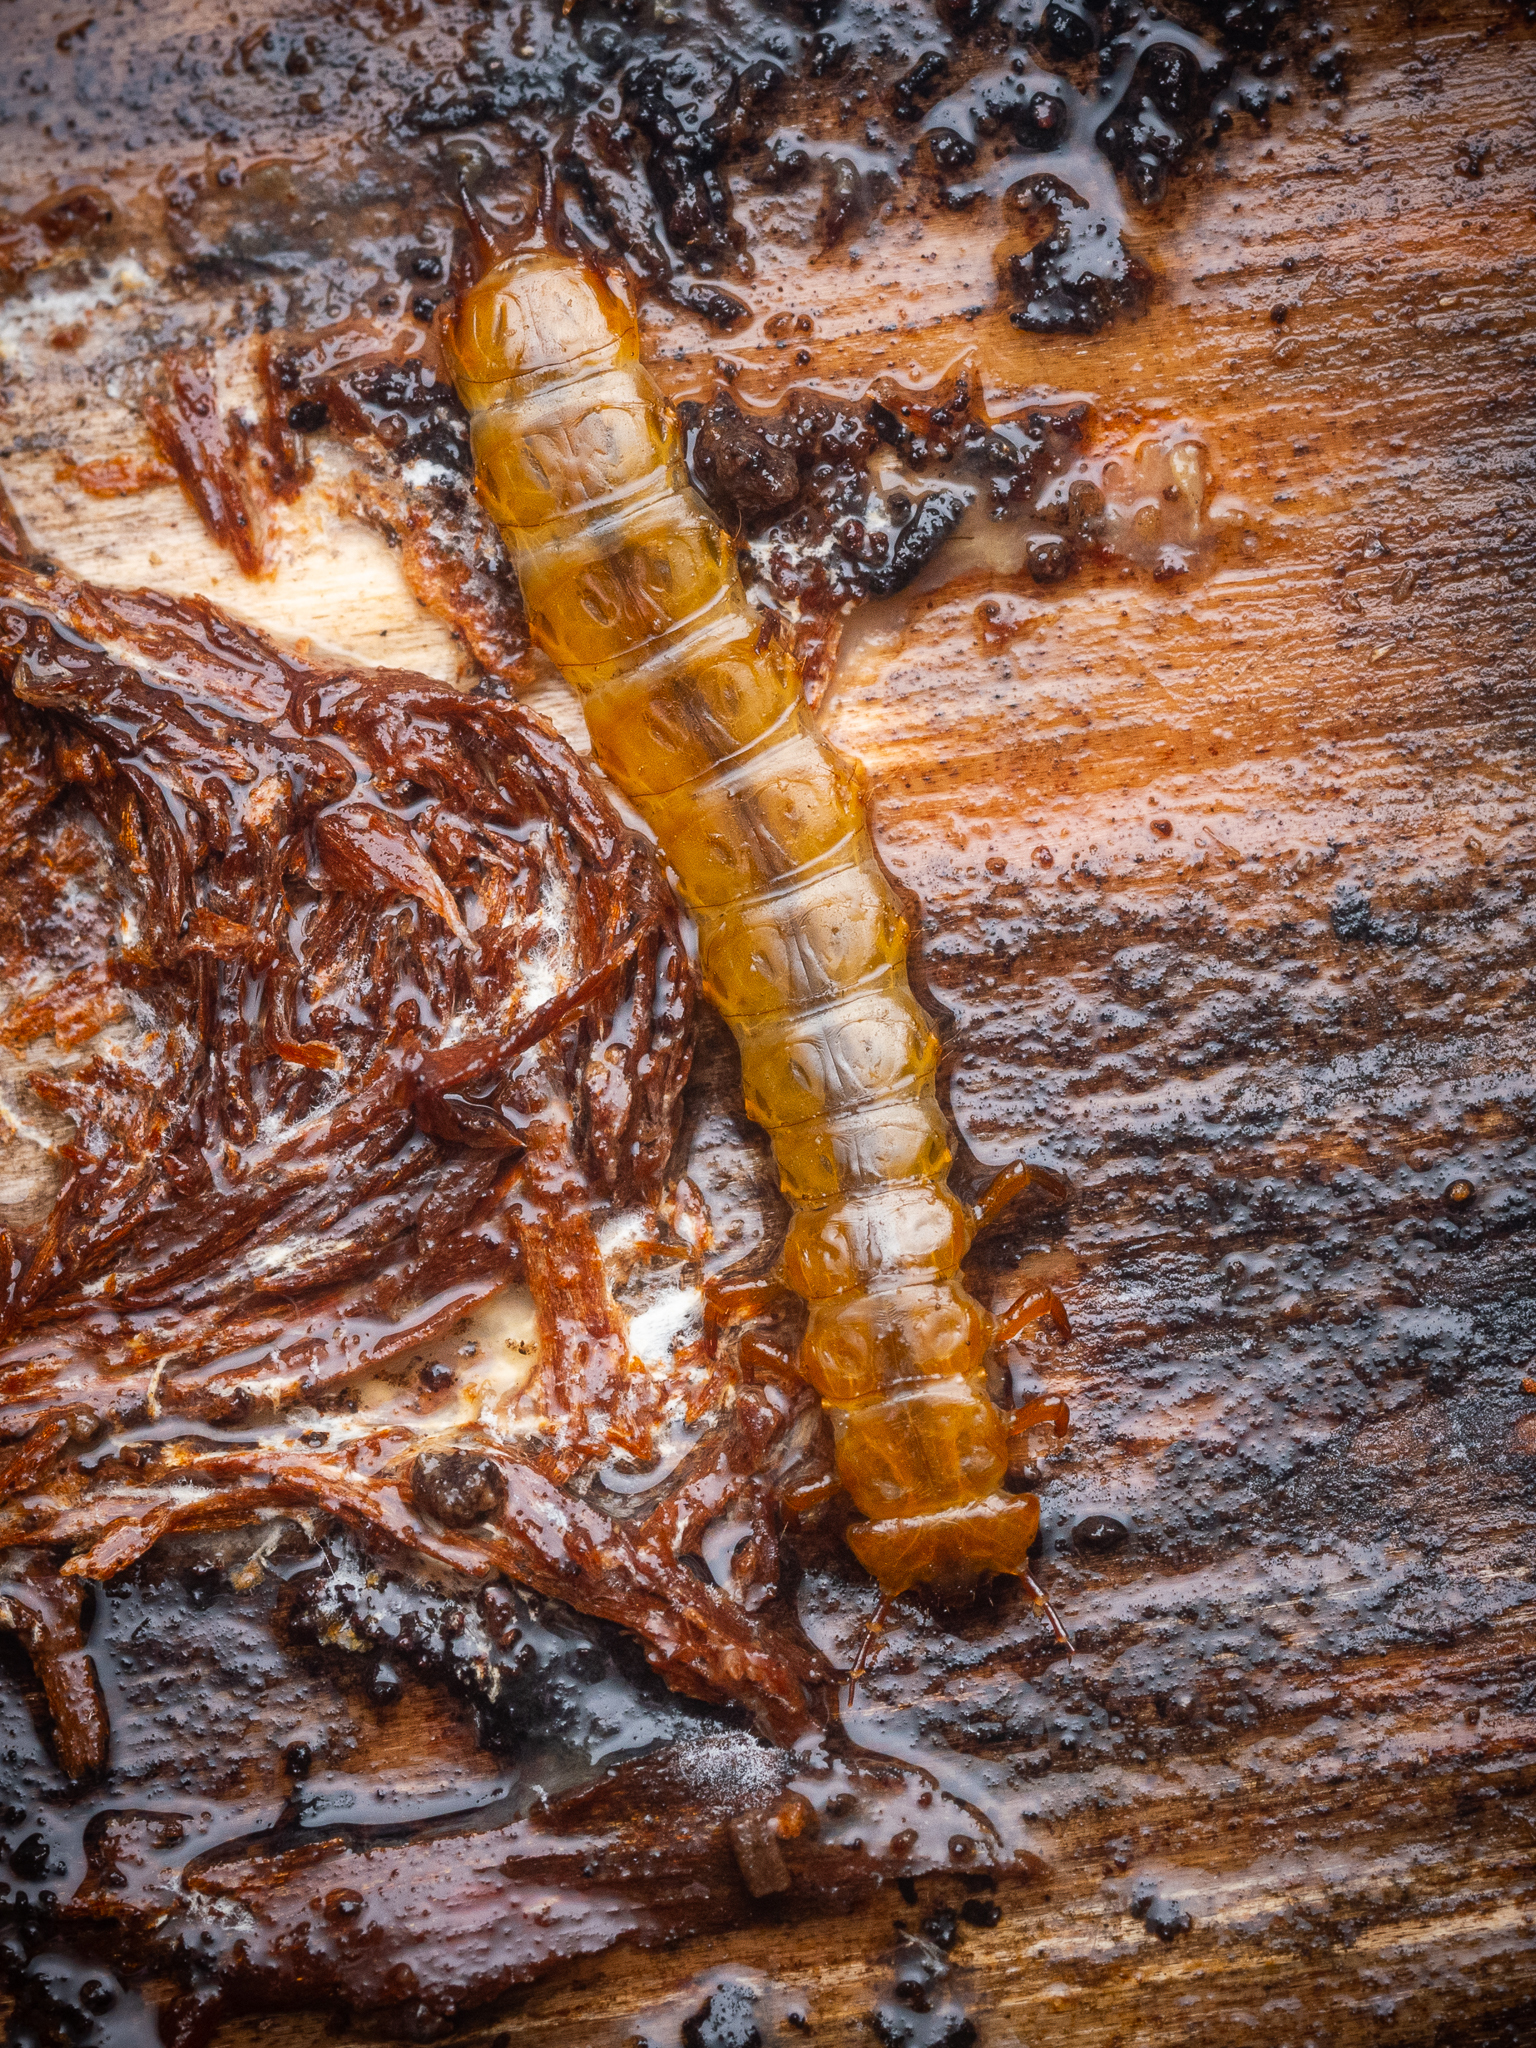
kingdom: Animalia
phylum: Arthropoda
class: Insecta
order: Coleoptera
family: Cucujidae
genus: Cucujus
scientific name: Cucujus cinnaberinus
